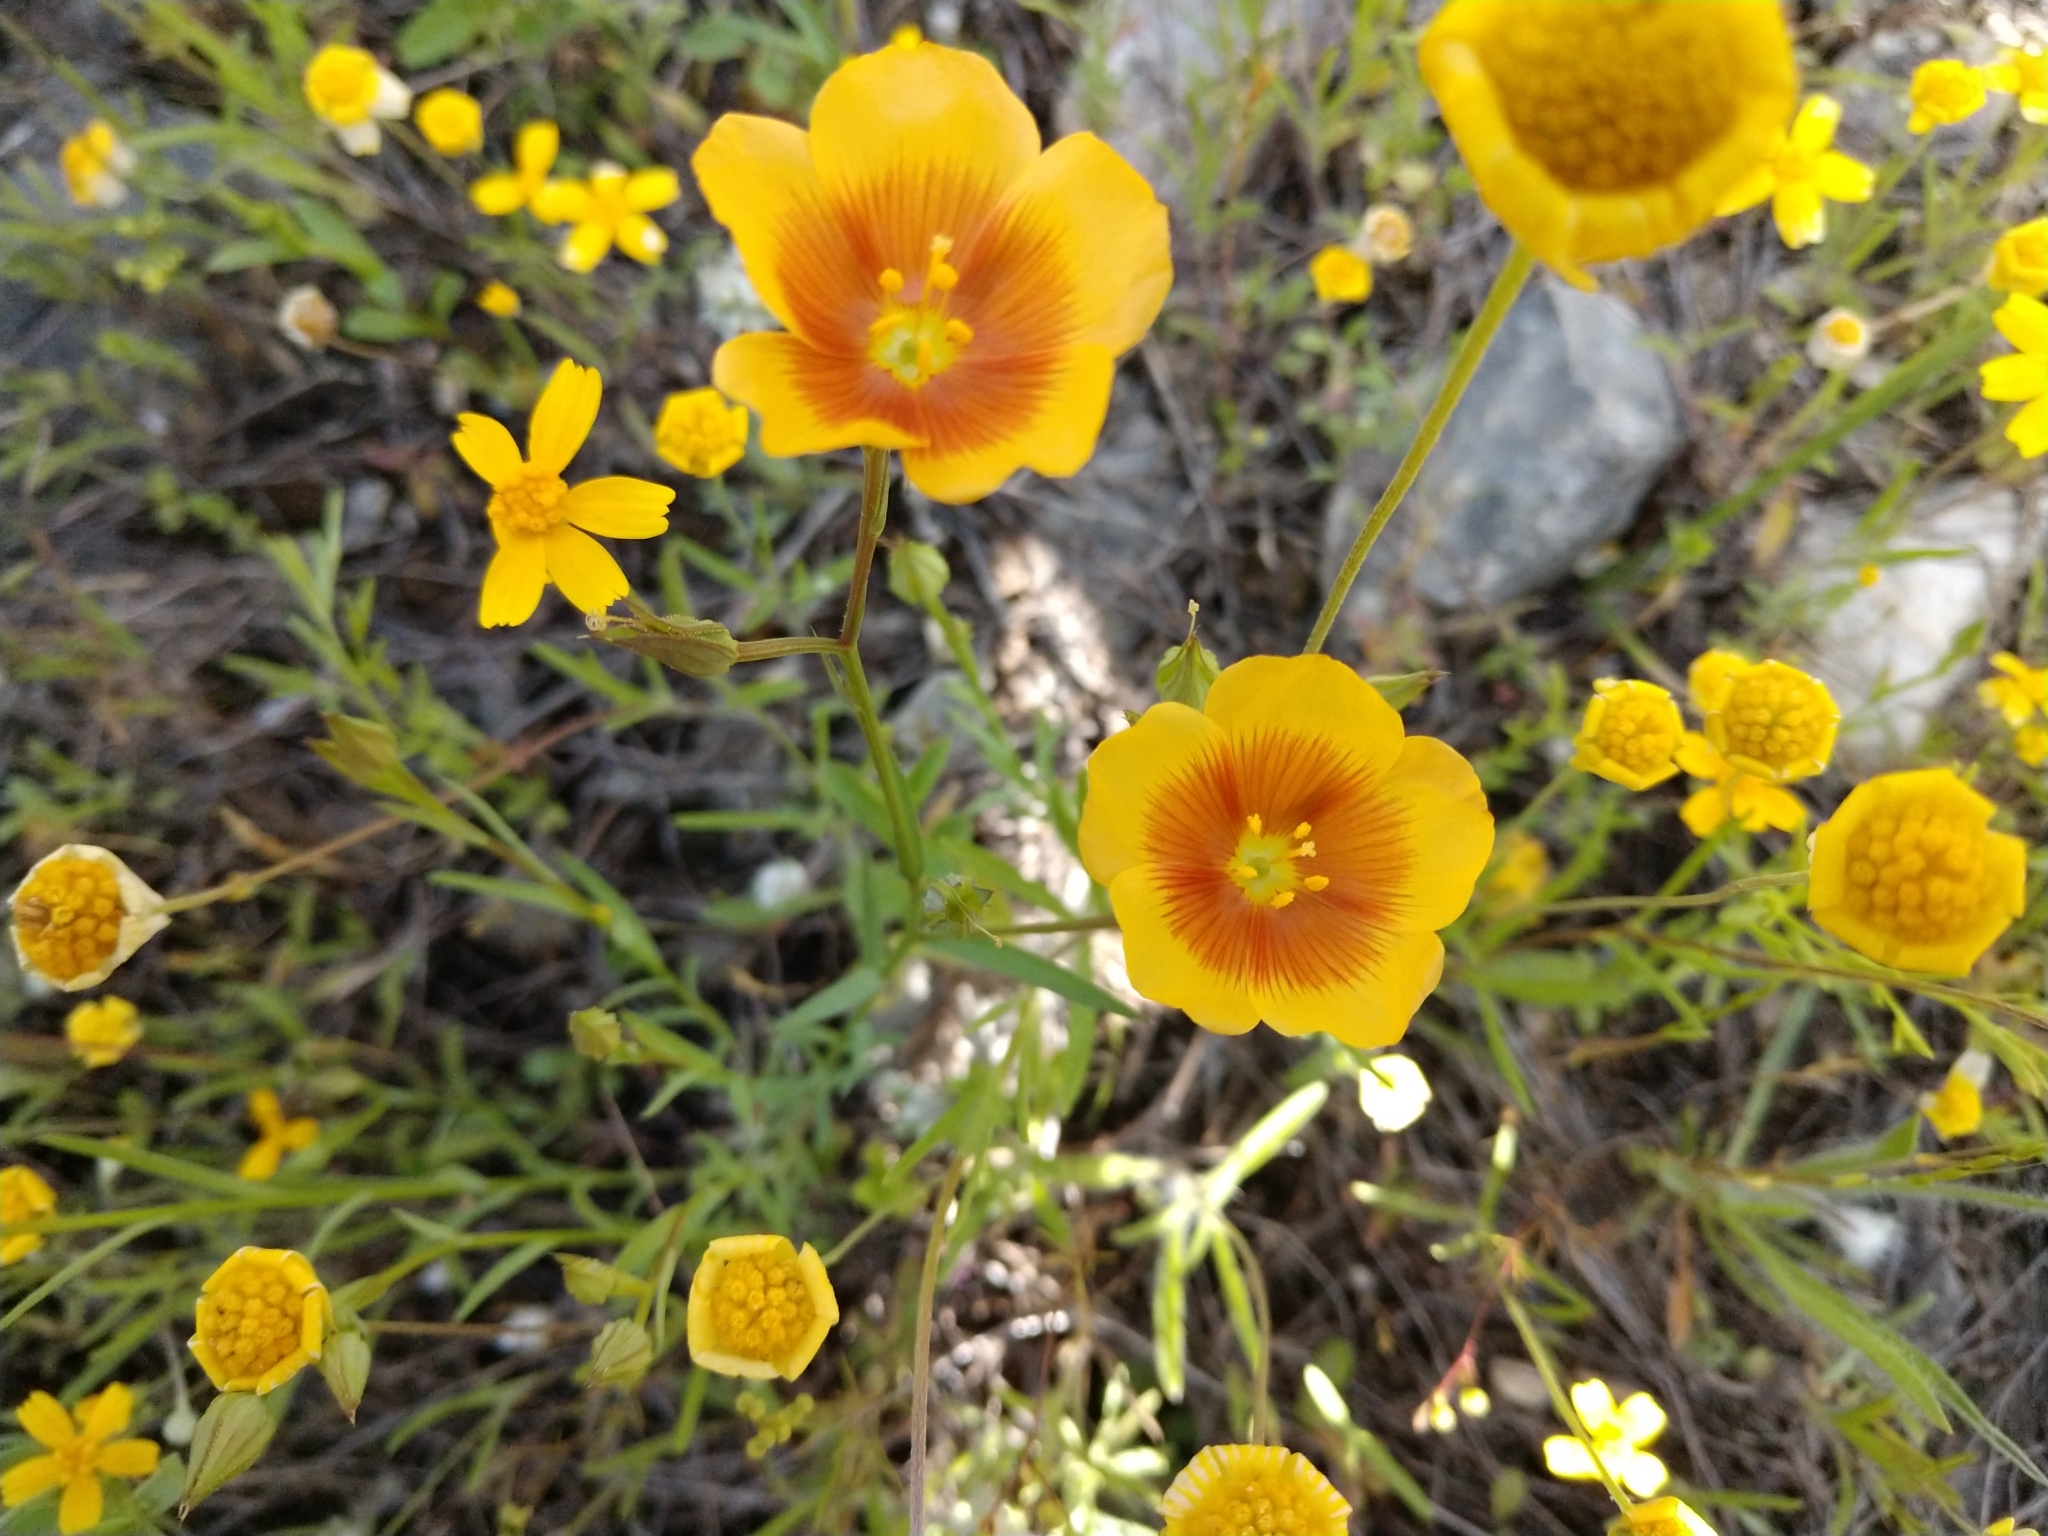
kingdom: Plantae
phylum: Tracheophyta
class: Magnoliopsida
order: Malpighiales
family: Linaceae
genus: Linum
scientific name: Linum berlandieri
